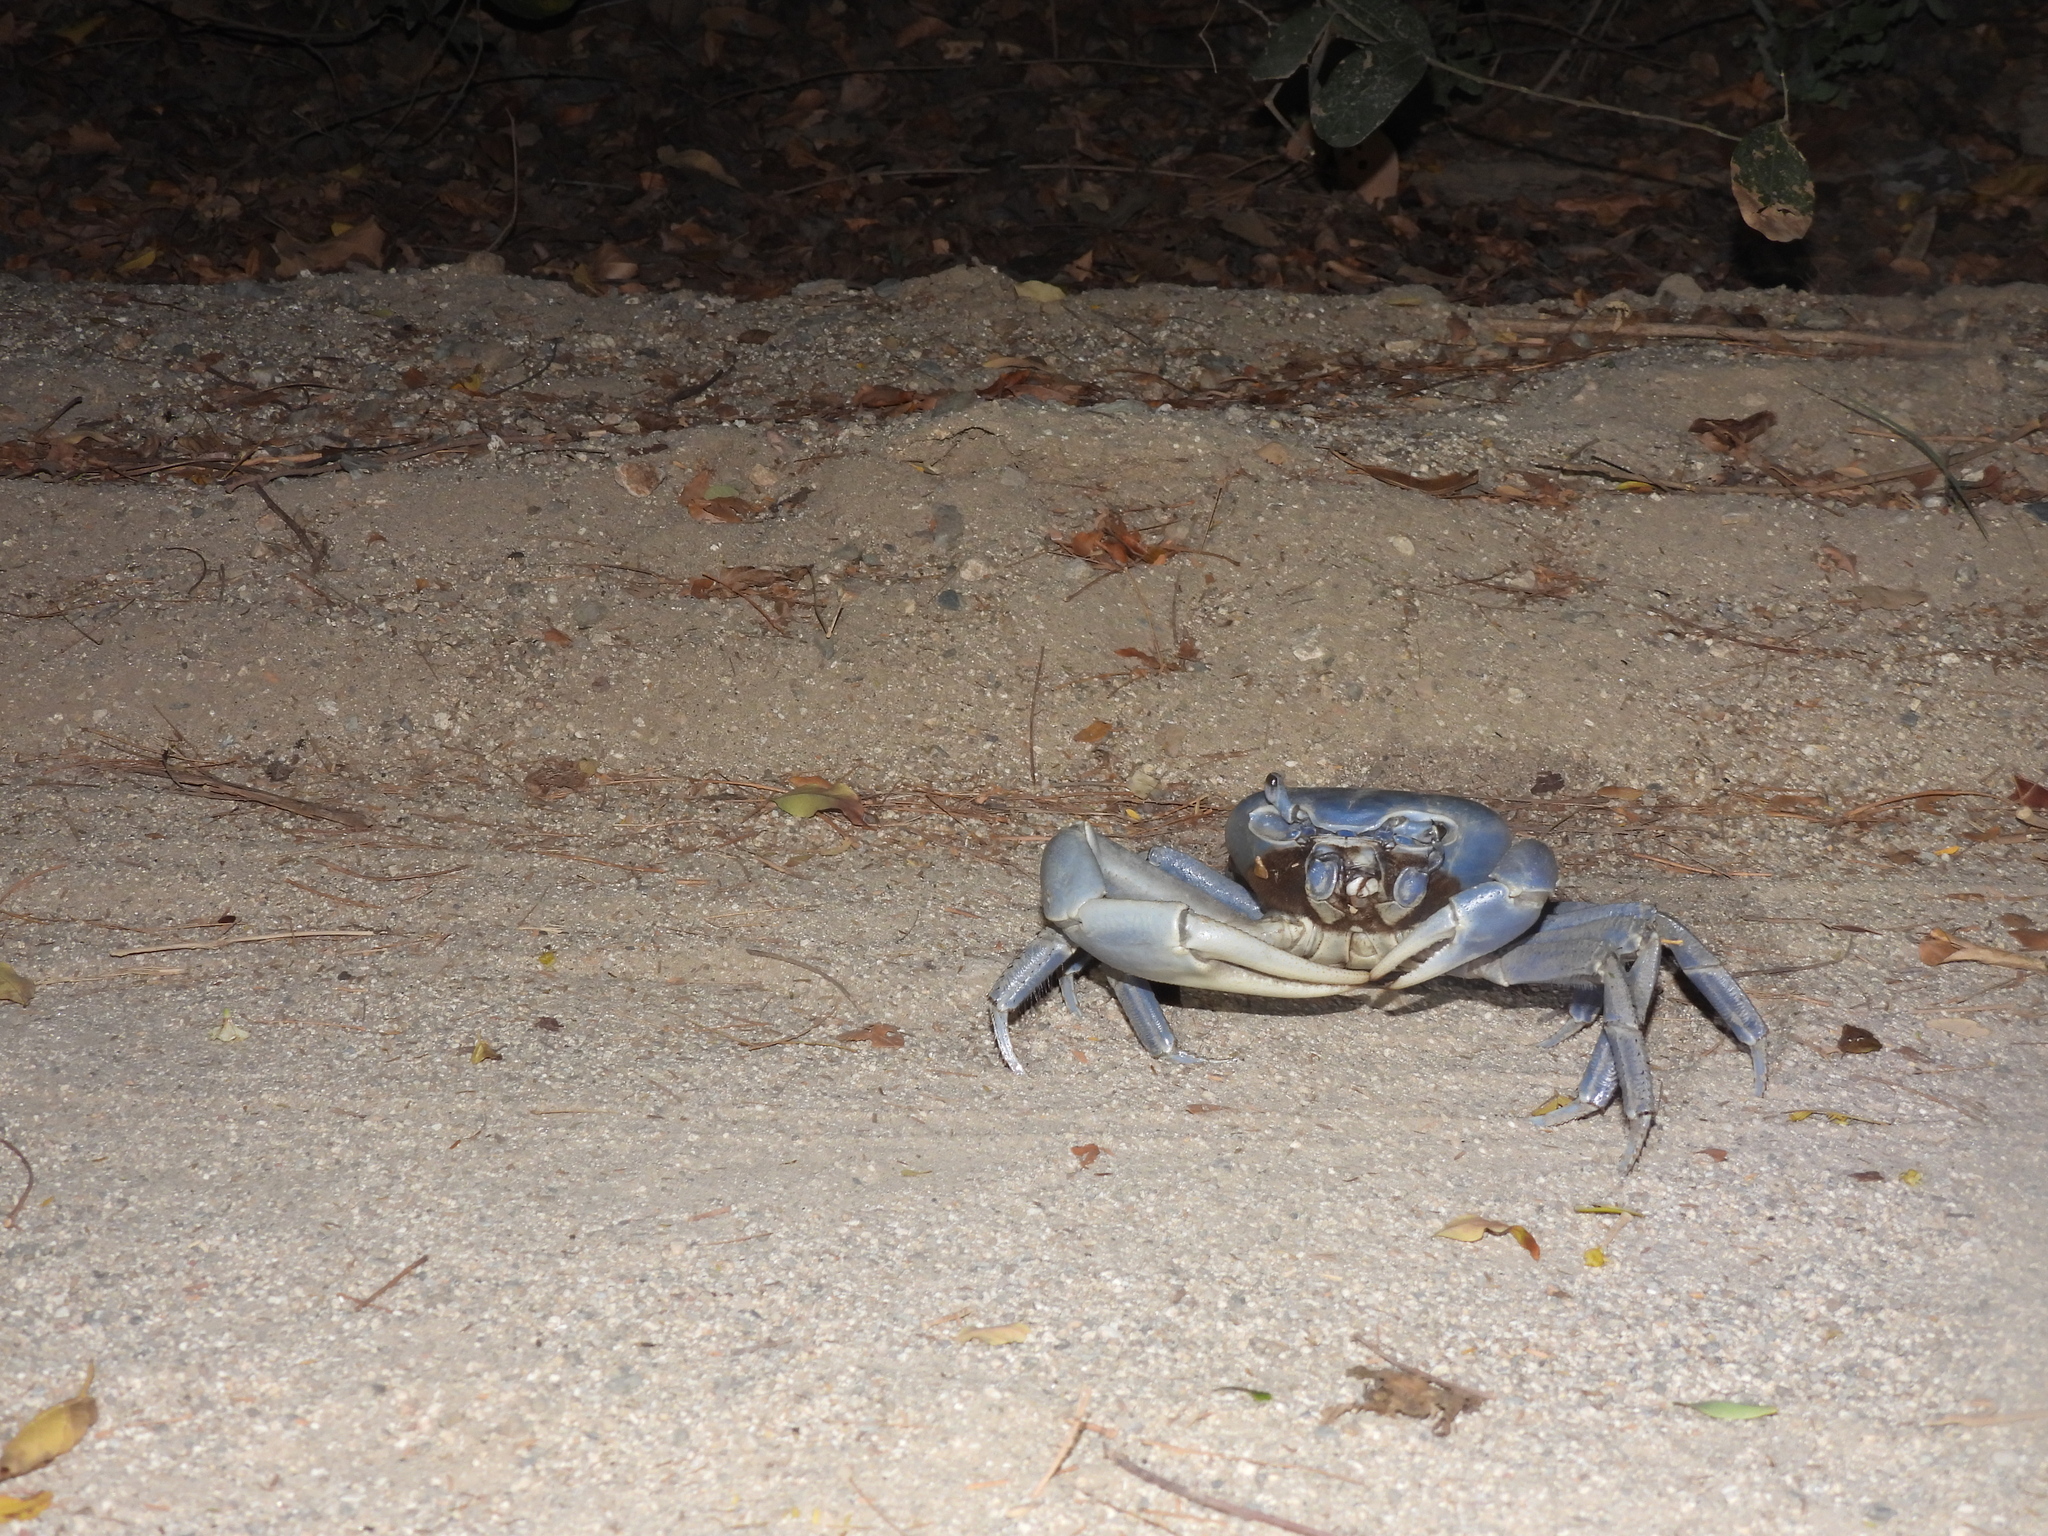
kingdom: Animalia
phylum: Arthropoda
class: Malacostraca
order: Decapoda
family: Gecarcinidae
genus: Cardisoma
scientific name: Cardisoma guanhumi
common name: Great land crab
